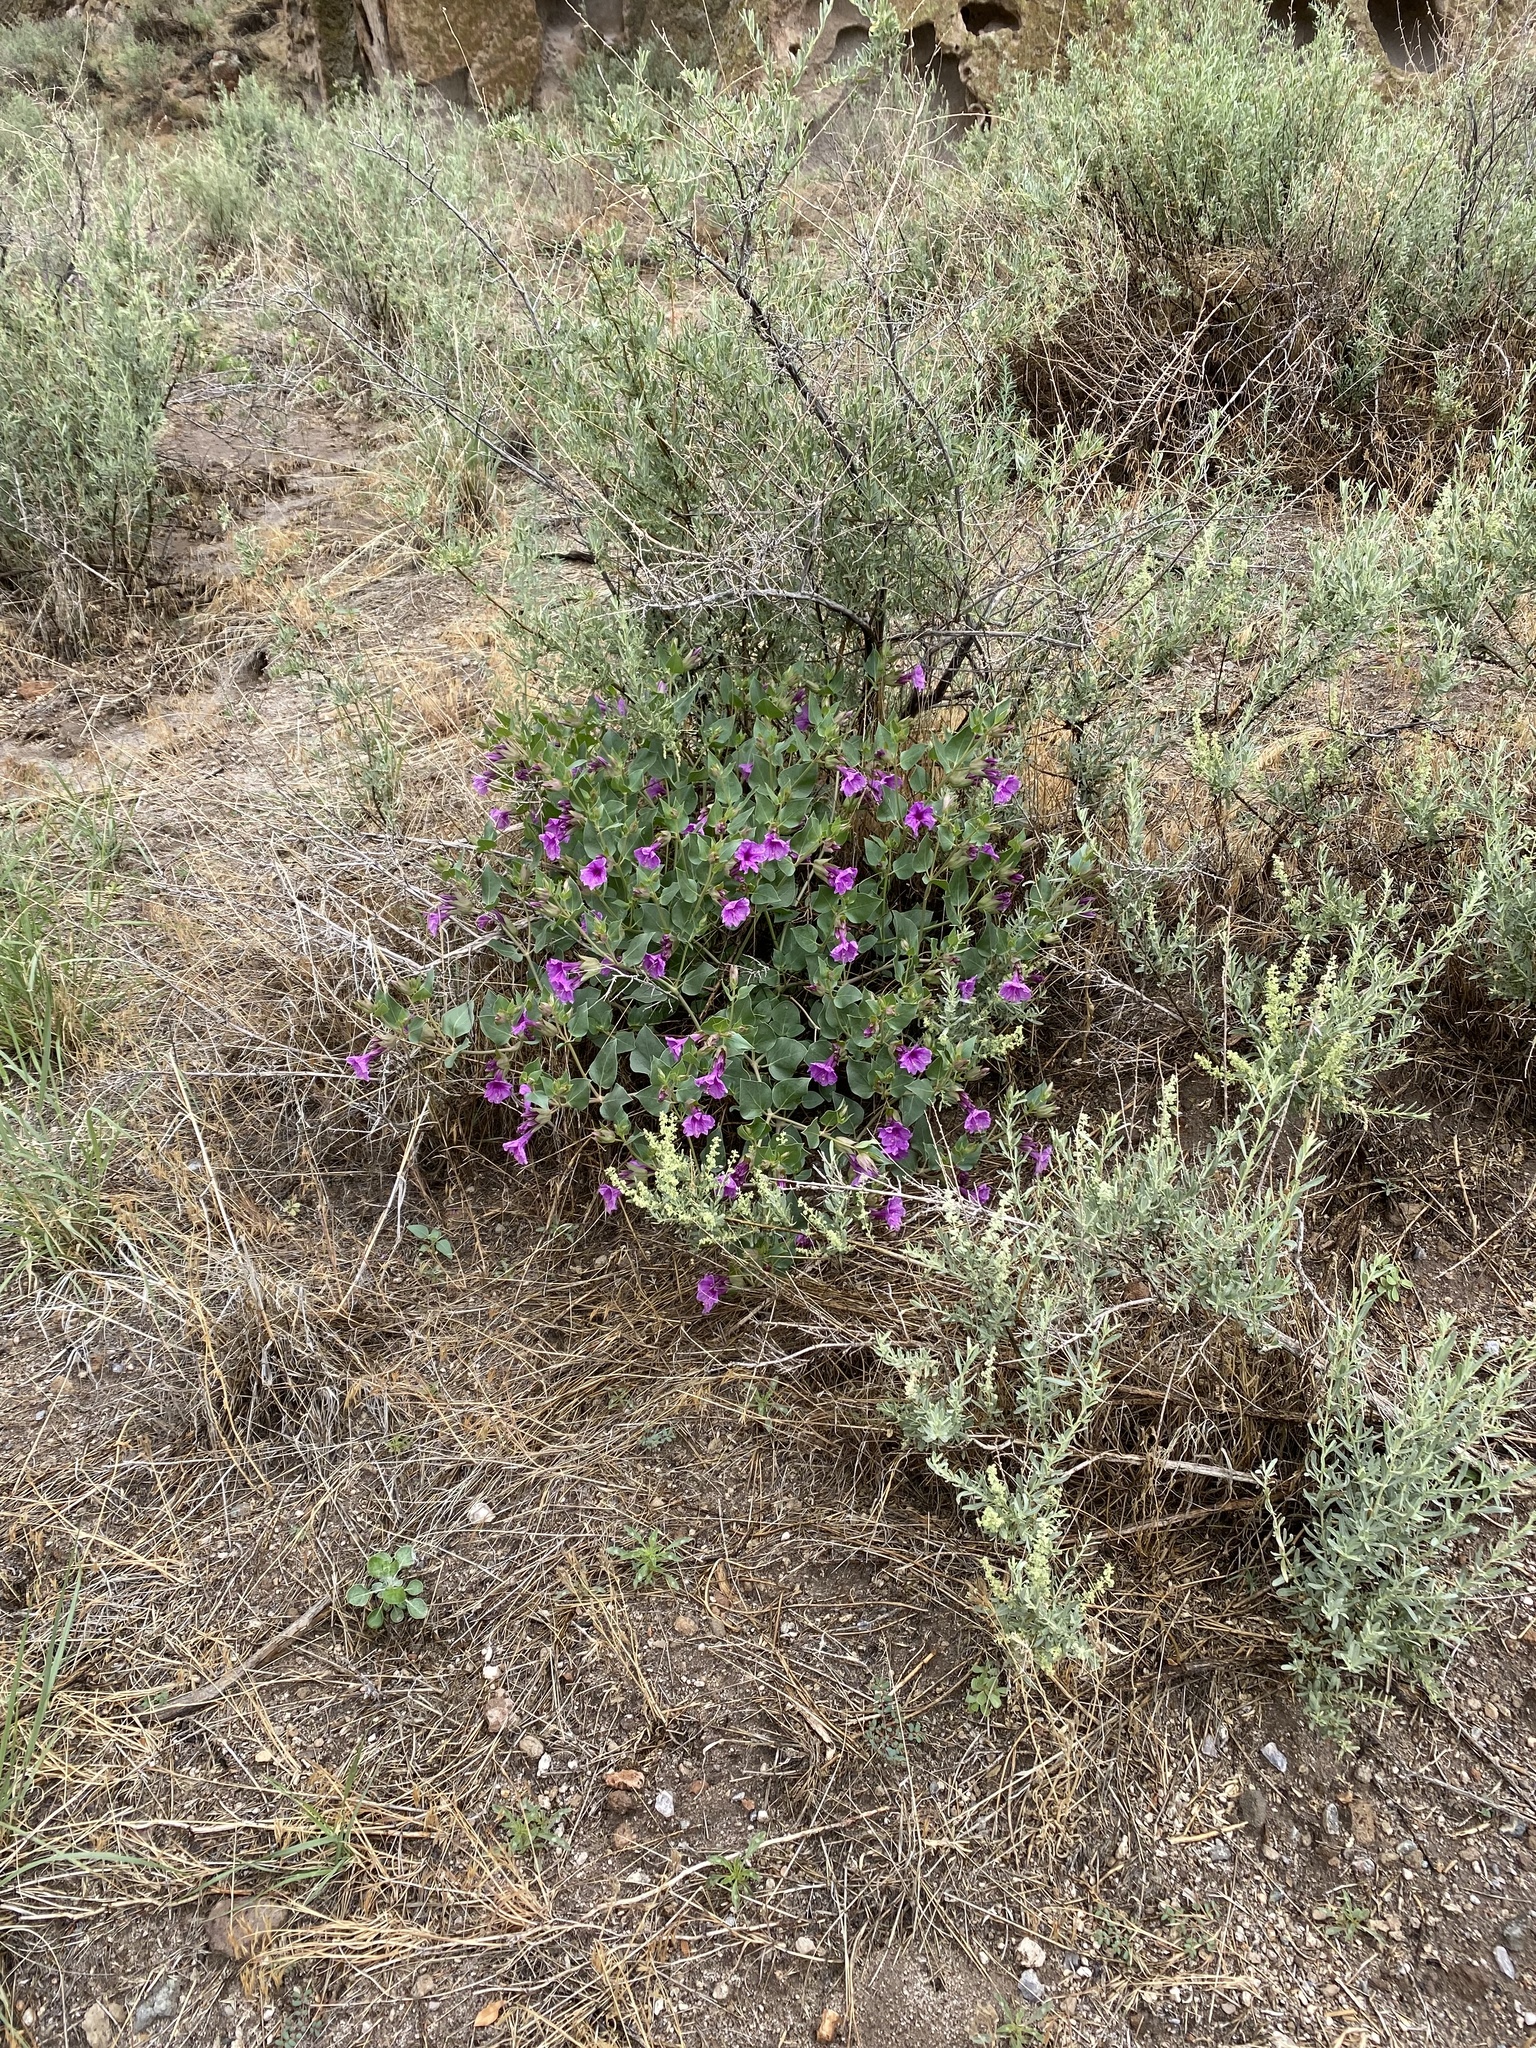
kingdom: Plantae
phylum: Tracheophyta
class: Magnoliopsida
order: Caryophyllales
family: Nyctaginaceae
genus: Mirabilis
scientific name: Mirabilis multiflora
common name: Froebel's four-o'clock
